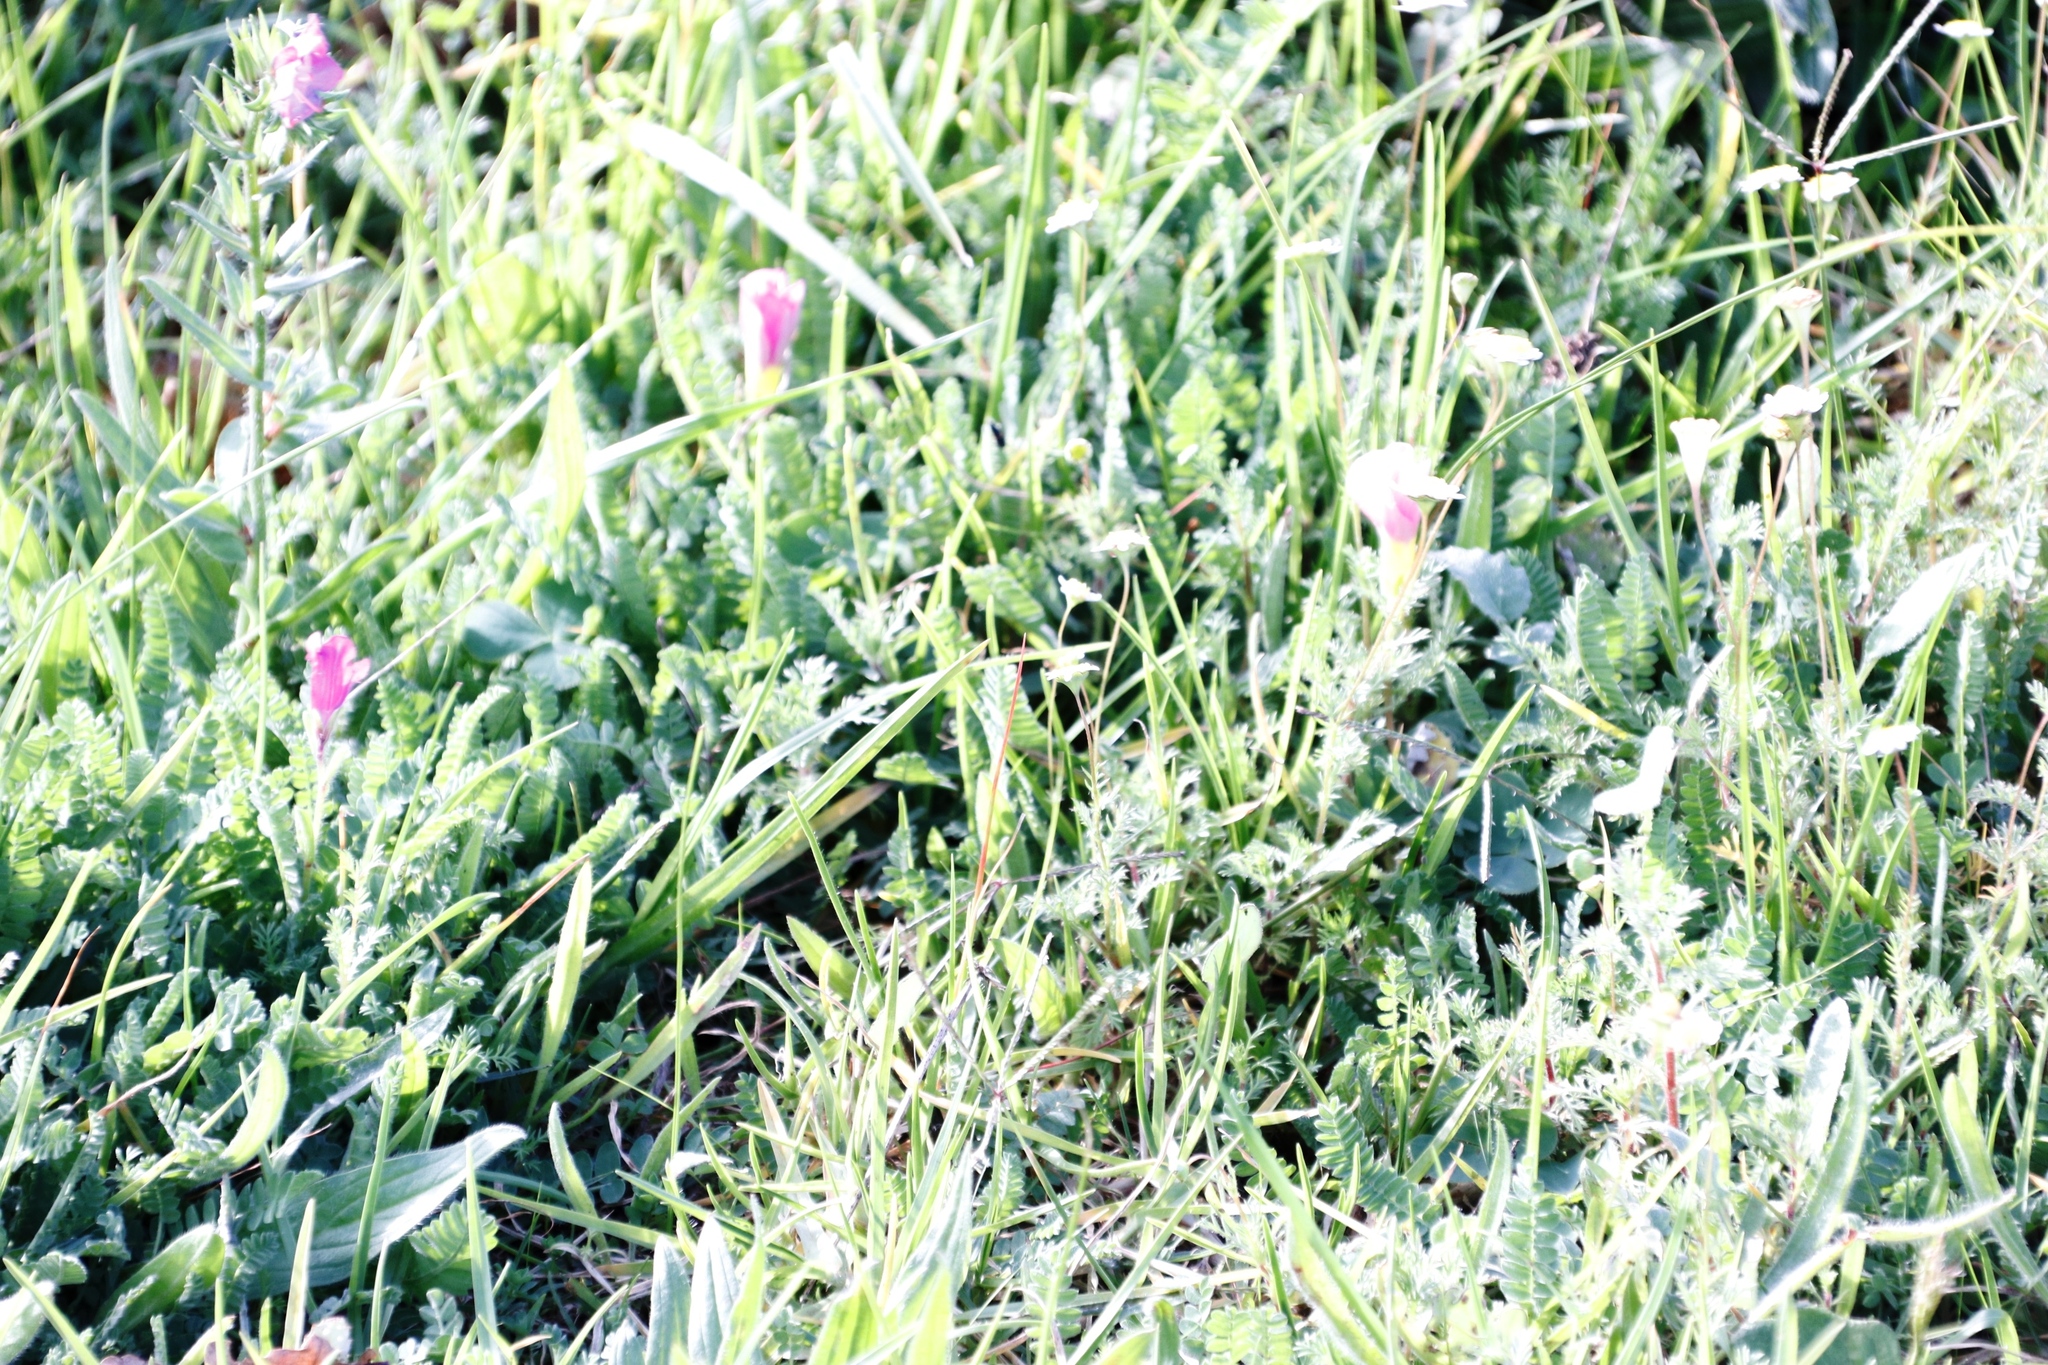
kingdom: Plantae
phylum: Tracheophyta
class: Magnoliopsida
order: Oxalidales
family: Oxalidaceae
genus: Oxalis
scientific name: Oxalis purpurea
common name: Purple woodsorrel
